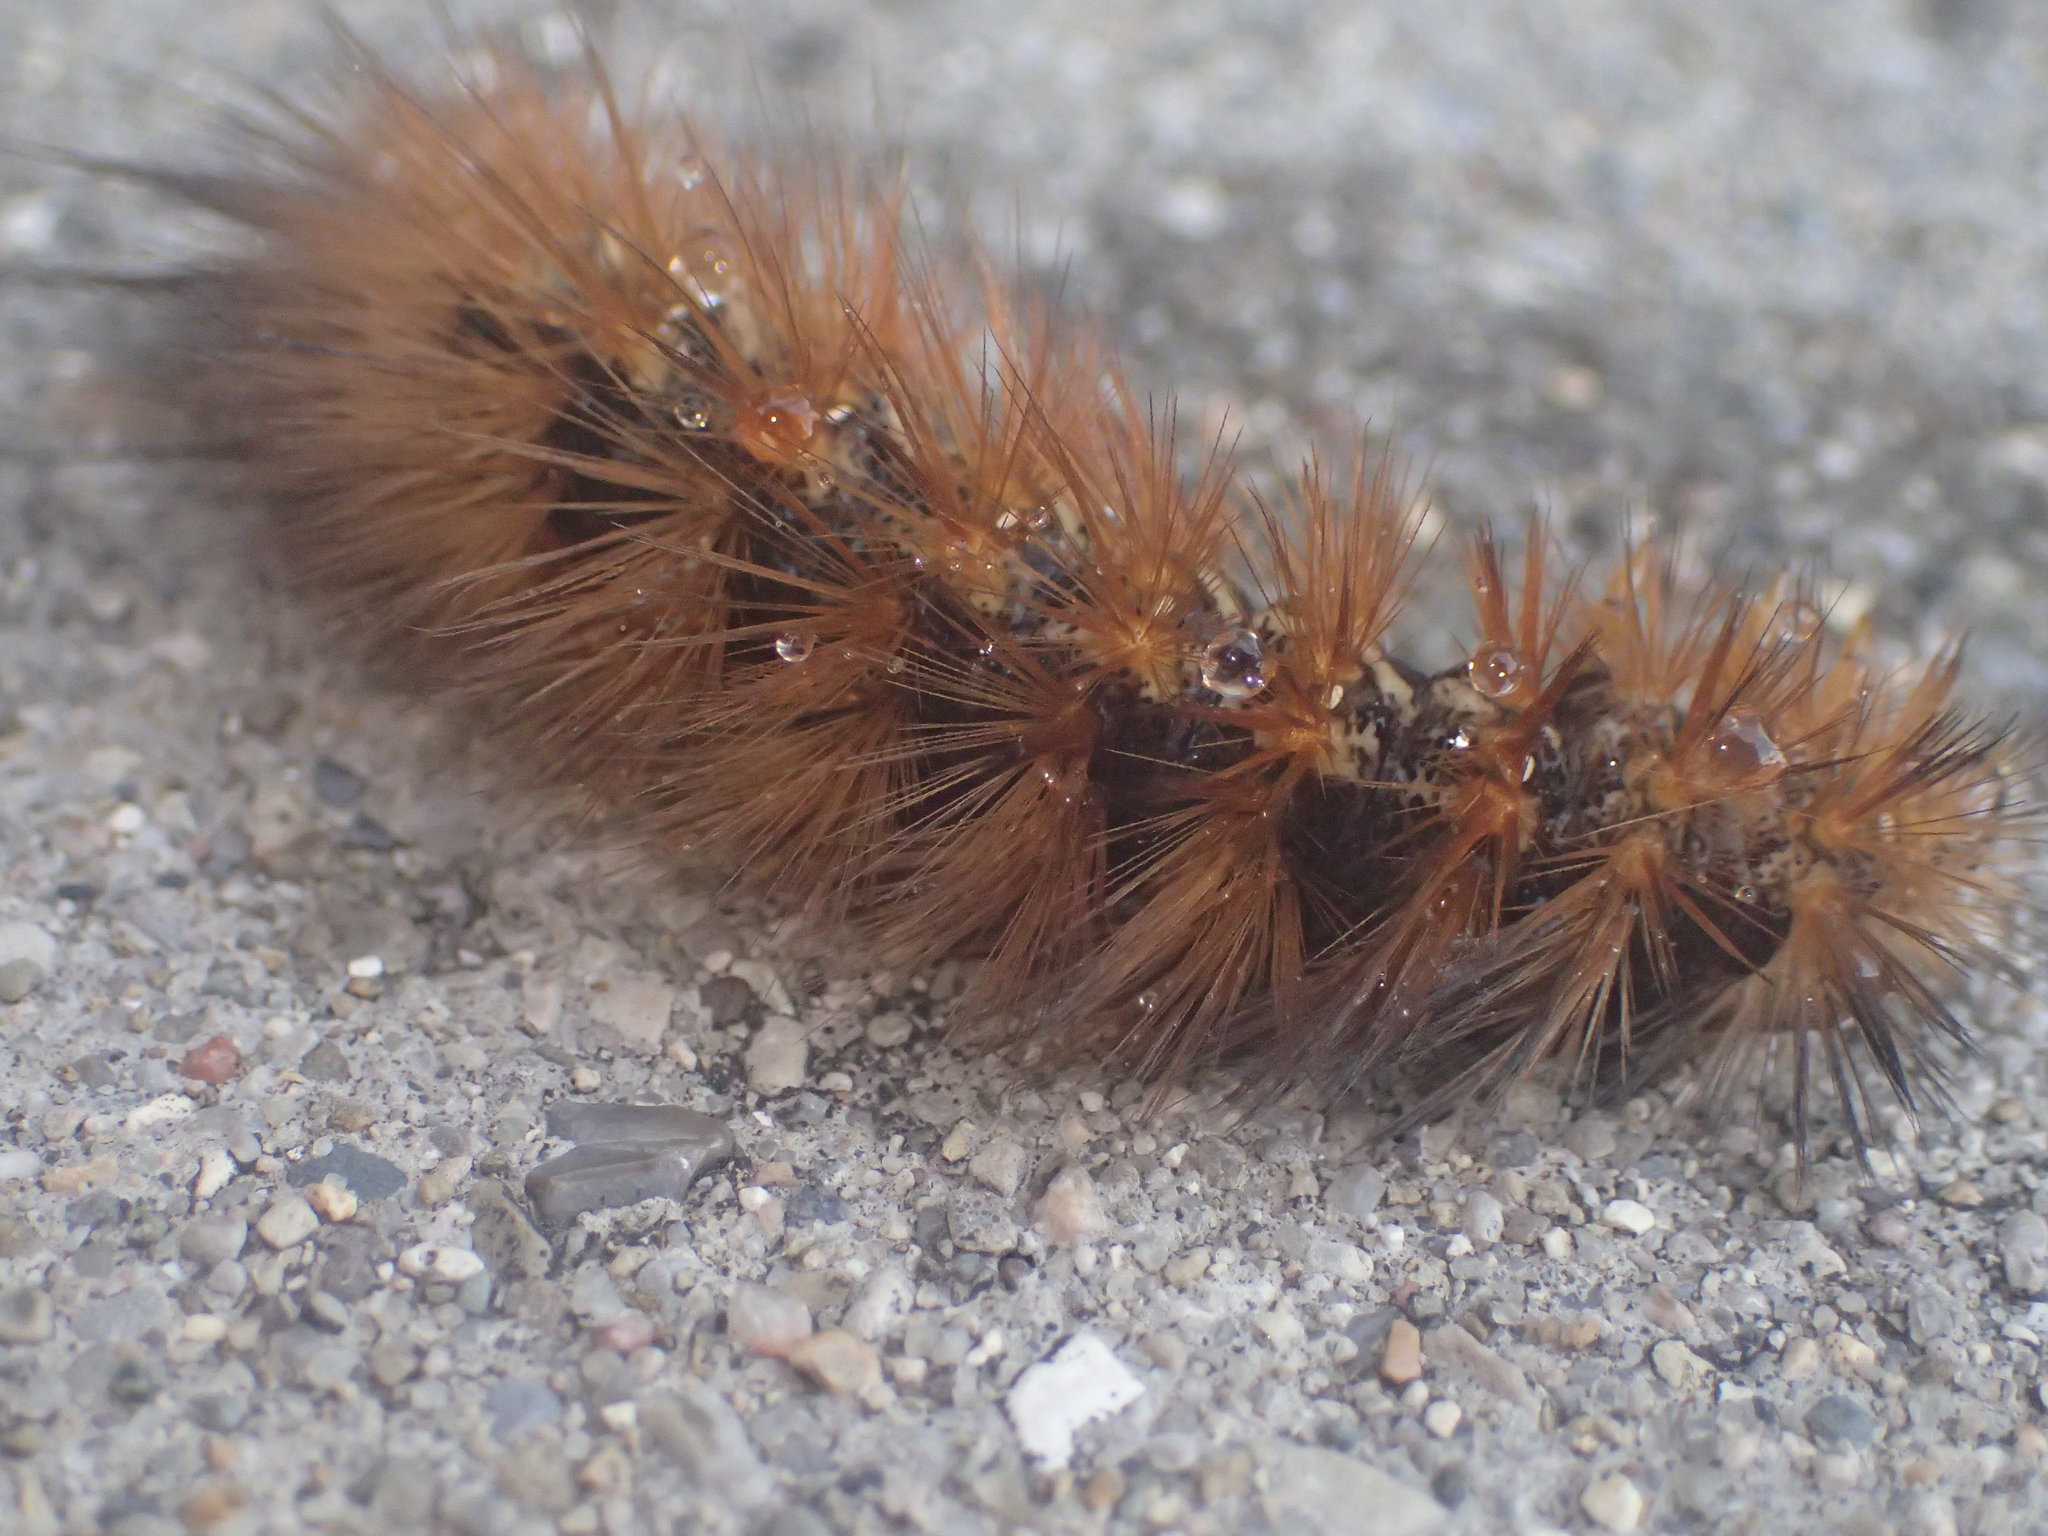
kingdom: Animalia
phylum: Arthropoda
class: Insecta
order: Lepidoptera
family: Erebidae
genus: Estigmene
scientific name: Estigmene acrea
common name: Salt marsh moth
